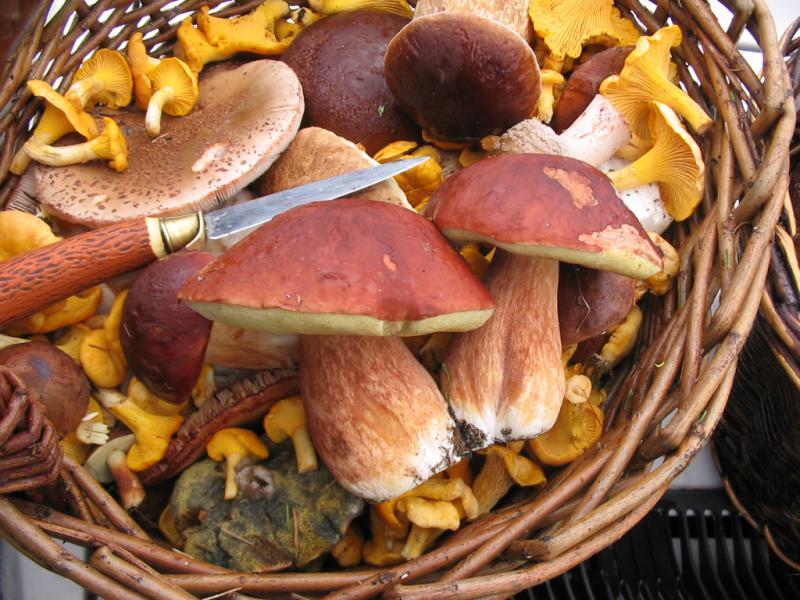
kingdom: Fungi
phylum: Basidiomycota
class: Agaricomycetes
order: Boletales
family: Boletaceae
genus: Boletus
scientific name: Boletus pinophilus
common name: Pine bolete
